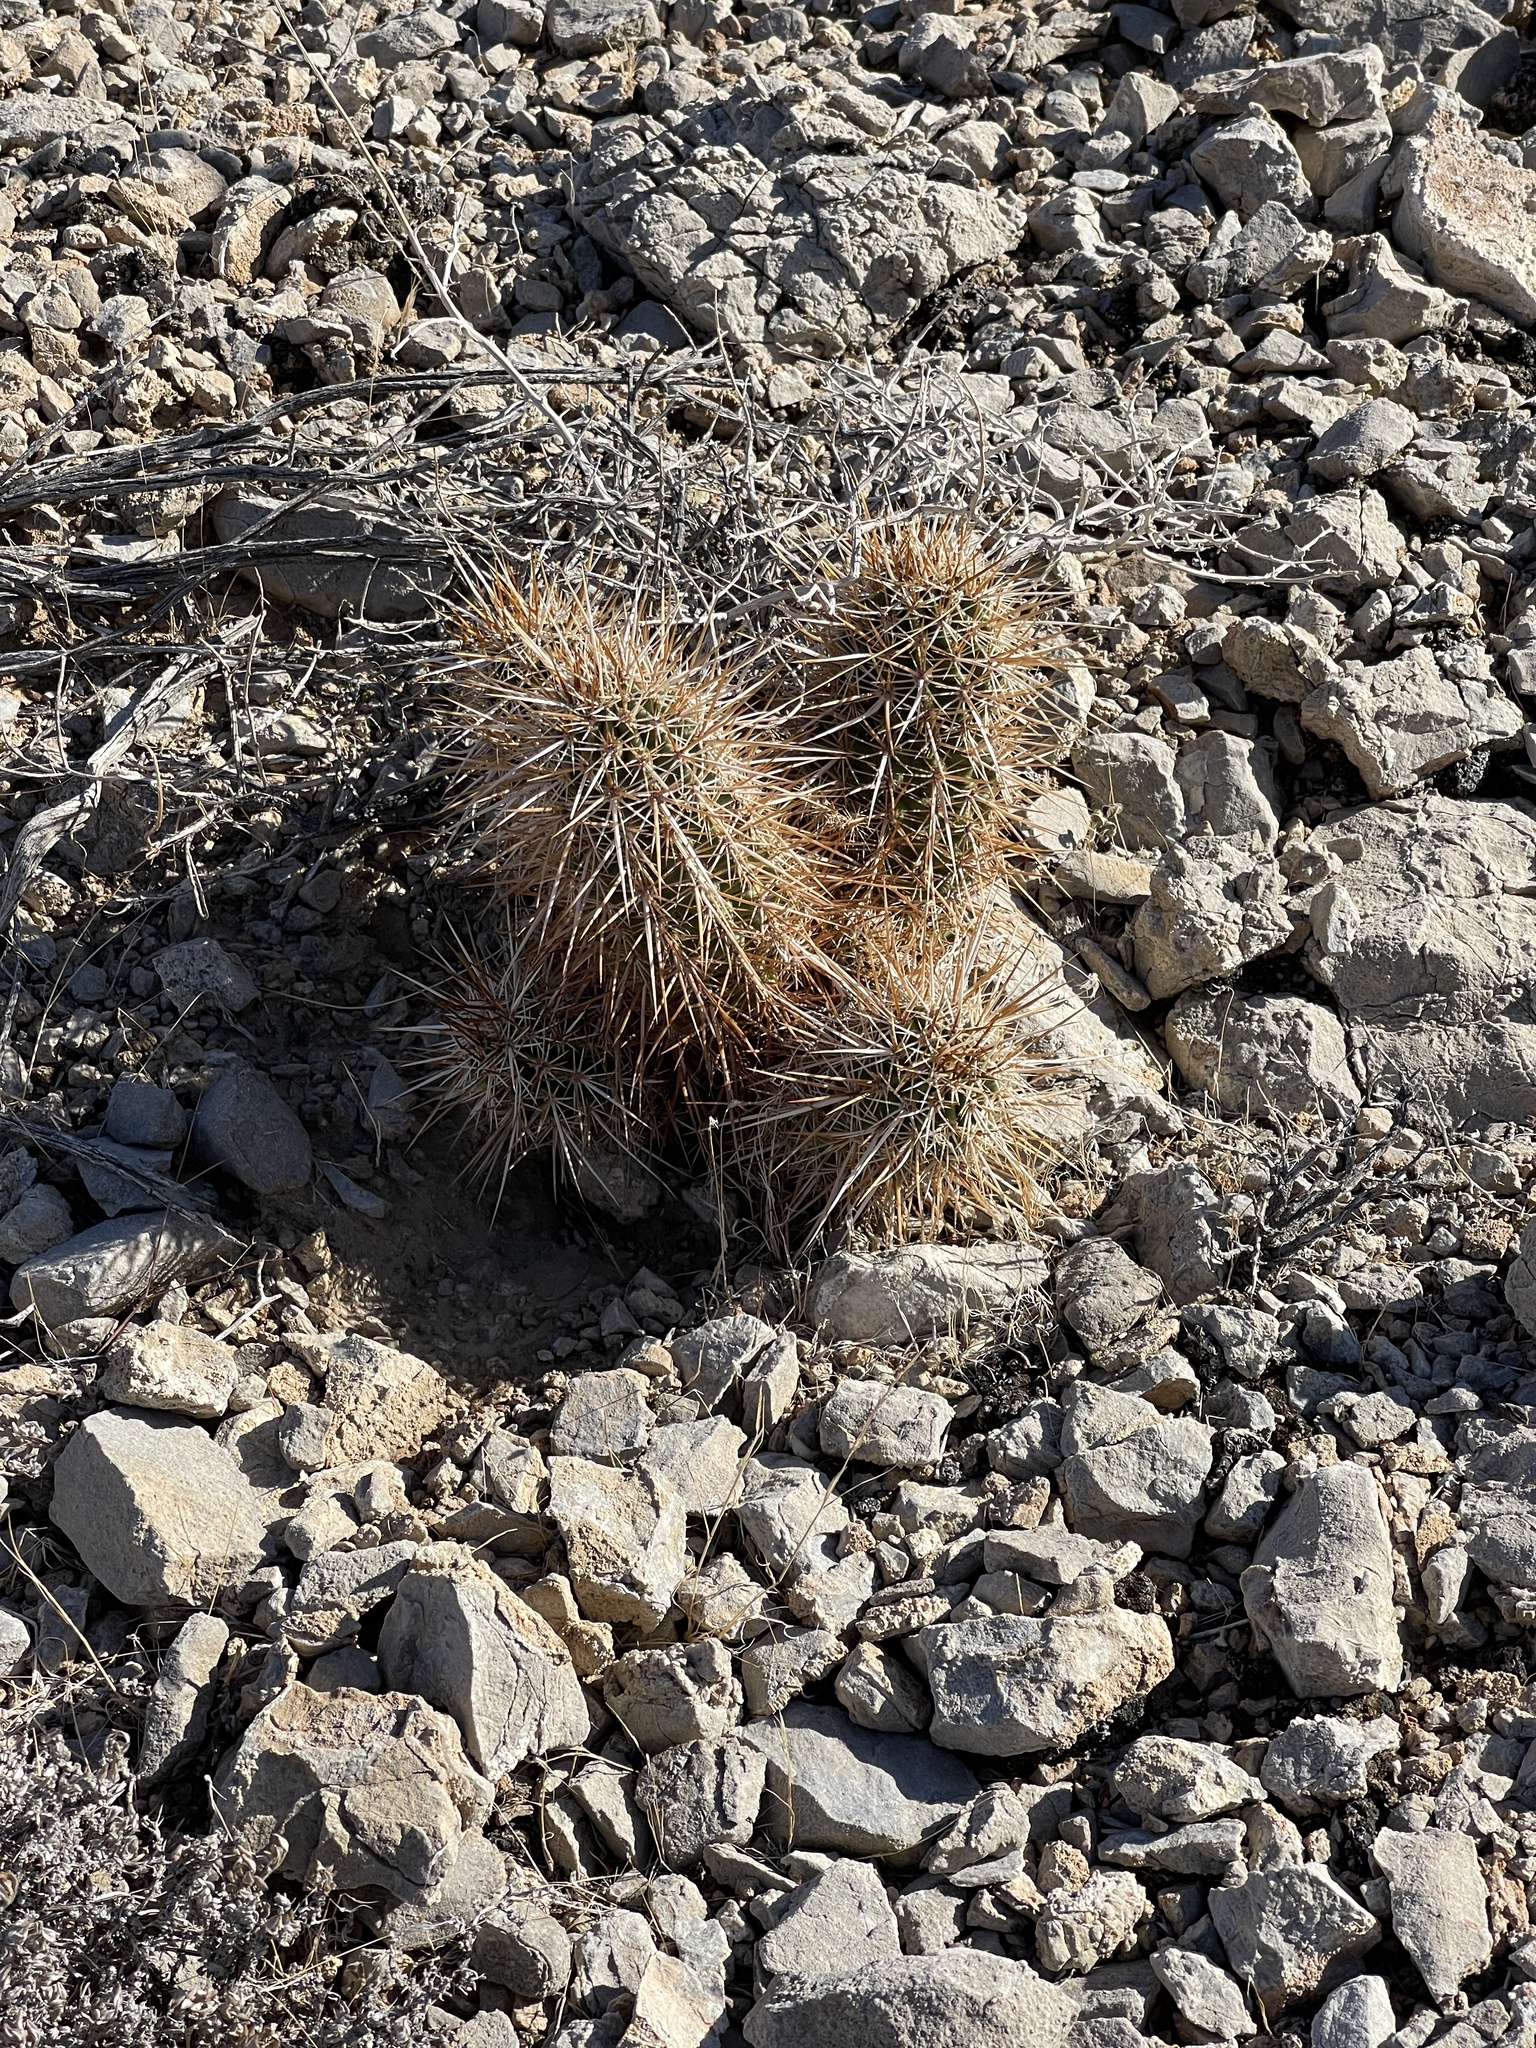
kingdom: Plantae
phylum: Tracheophyta
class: Magnoliopsida
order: Caryophyllales
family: Cactaceae
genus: Echinocereus
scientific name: Echinocereus engelmannii
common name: Engelmann's hedgehog cactus
